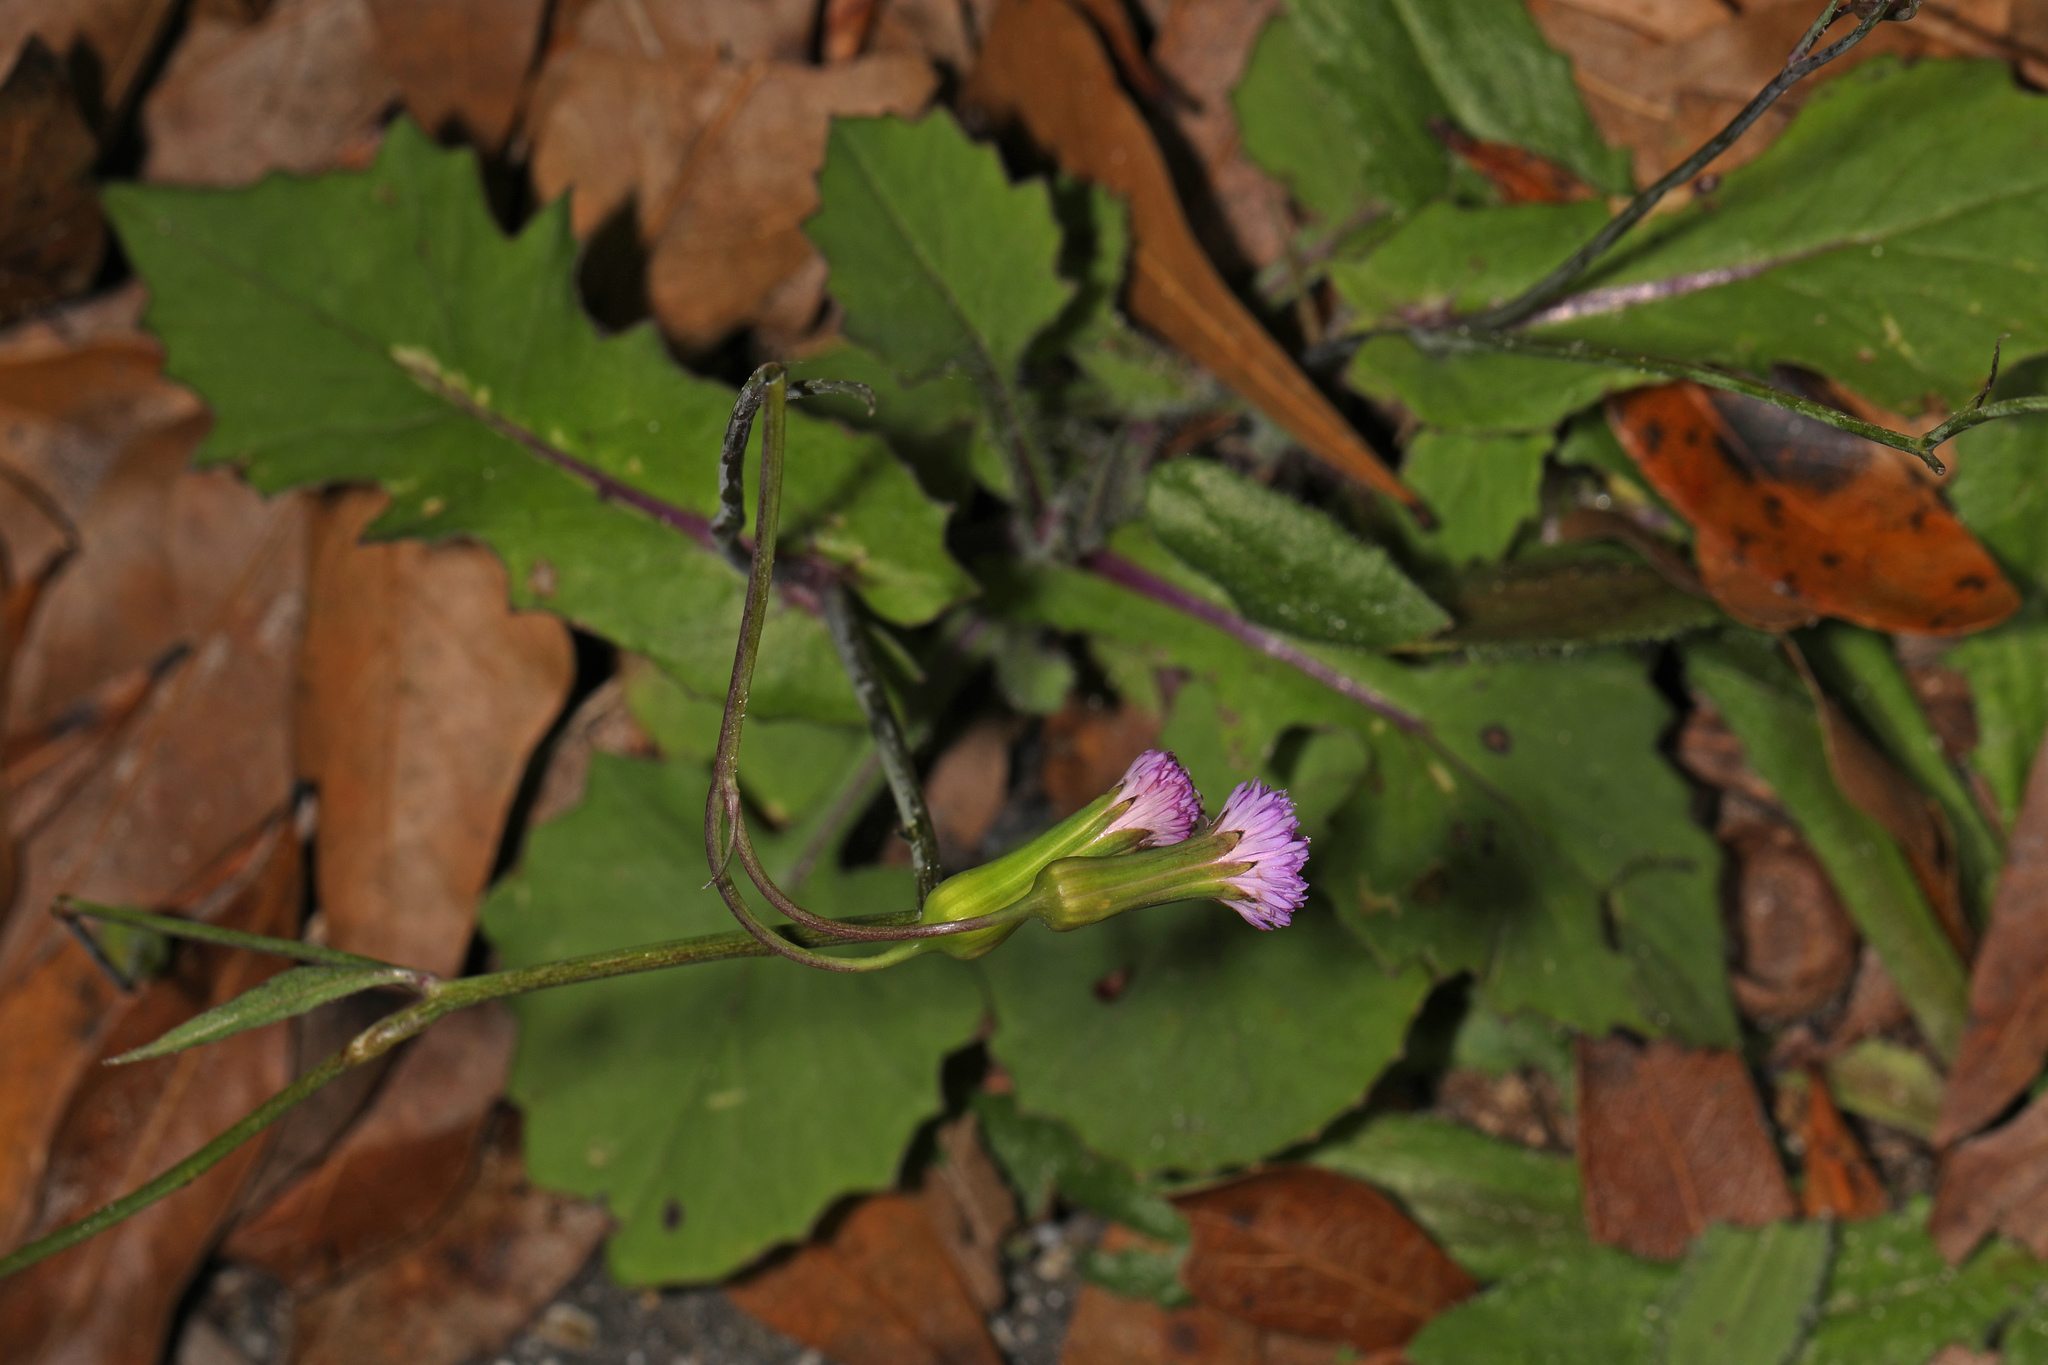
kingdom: Plantae
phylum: Tracheophyta
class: Magnoliopsida
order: Asterales
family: Asteraceae
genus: Emilia
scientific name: Emilia sonchifolia
